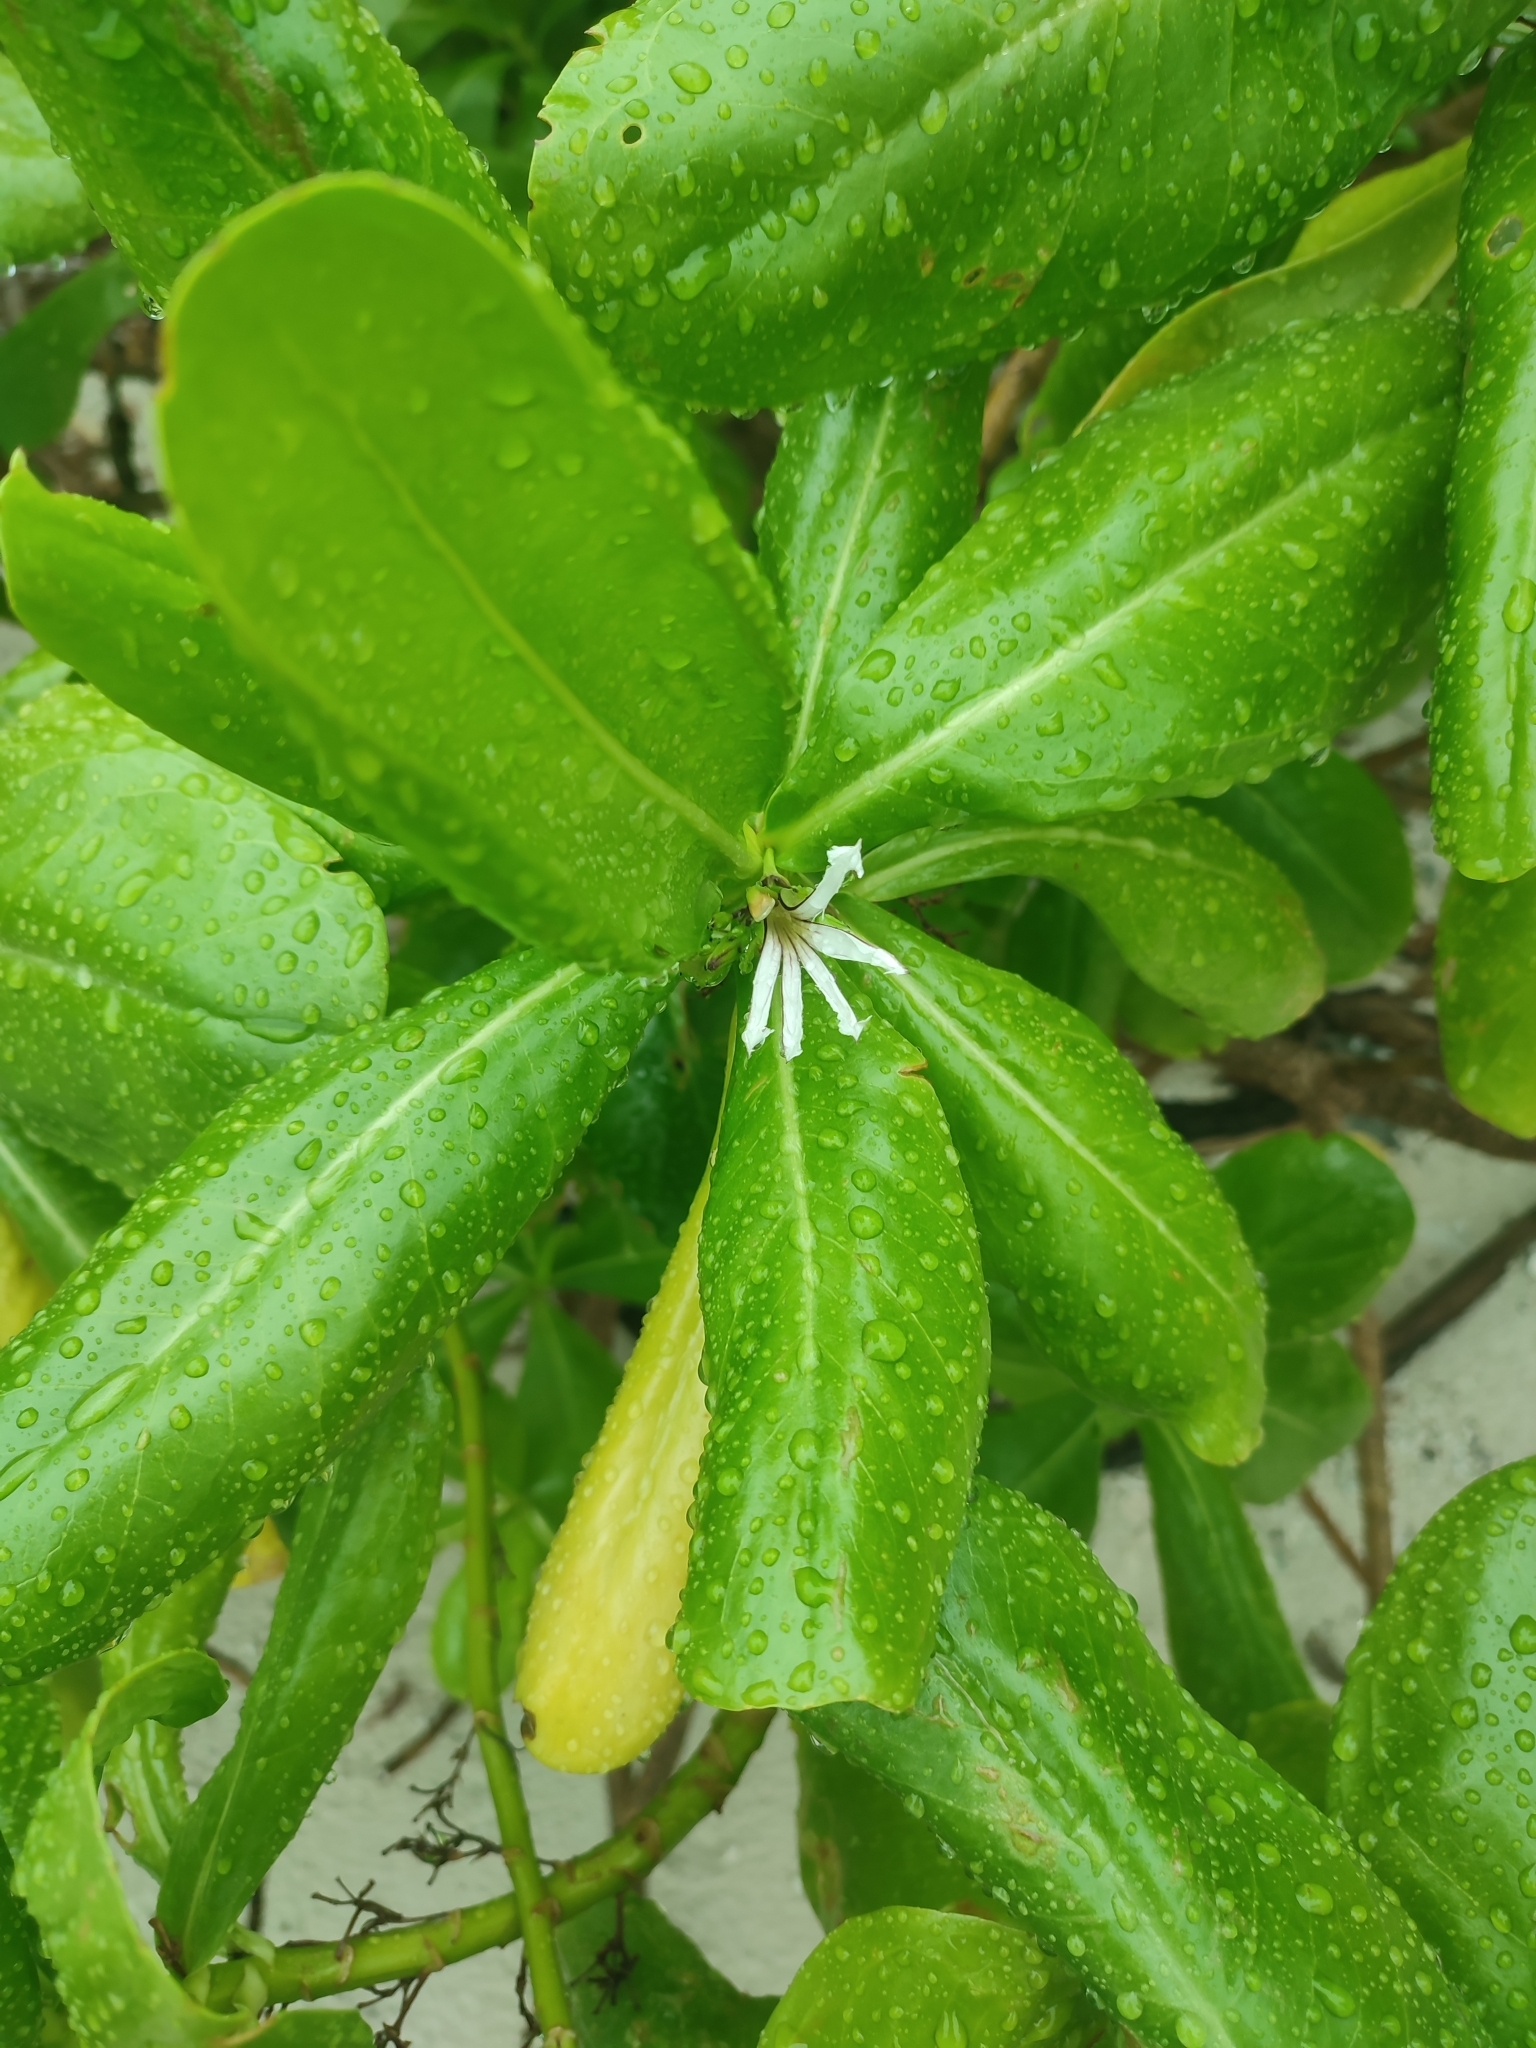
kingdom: Plantae
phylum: Tracheophyta
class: Magnoliopsida
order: Asterales
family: Goodeniaceae
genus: Scaevola
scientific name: Scaevola taccada
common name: Sea lettucetree
